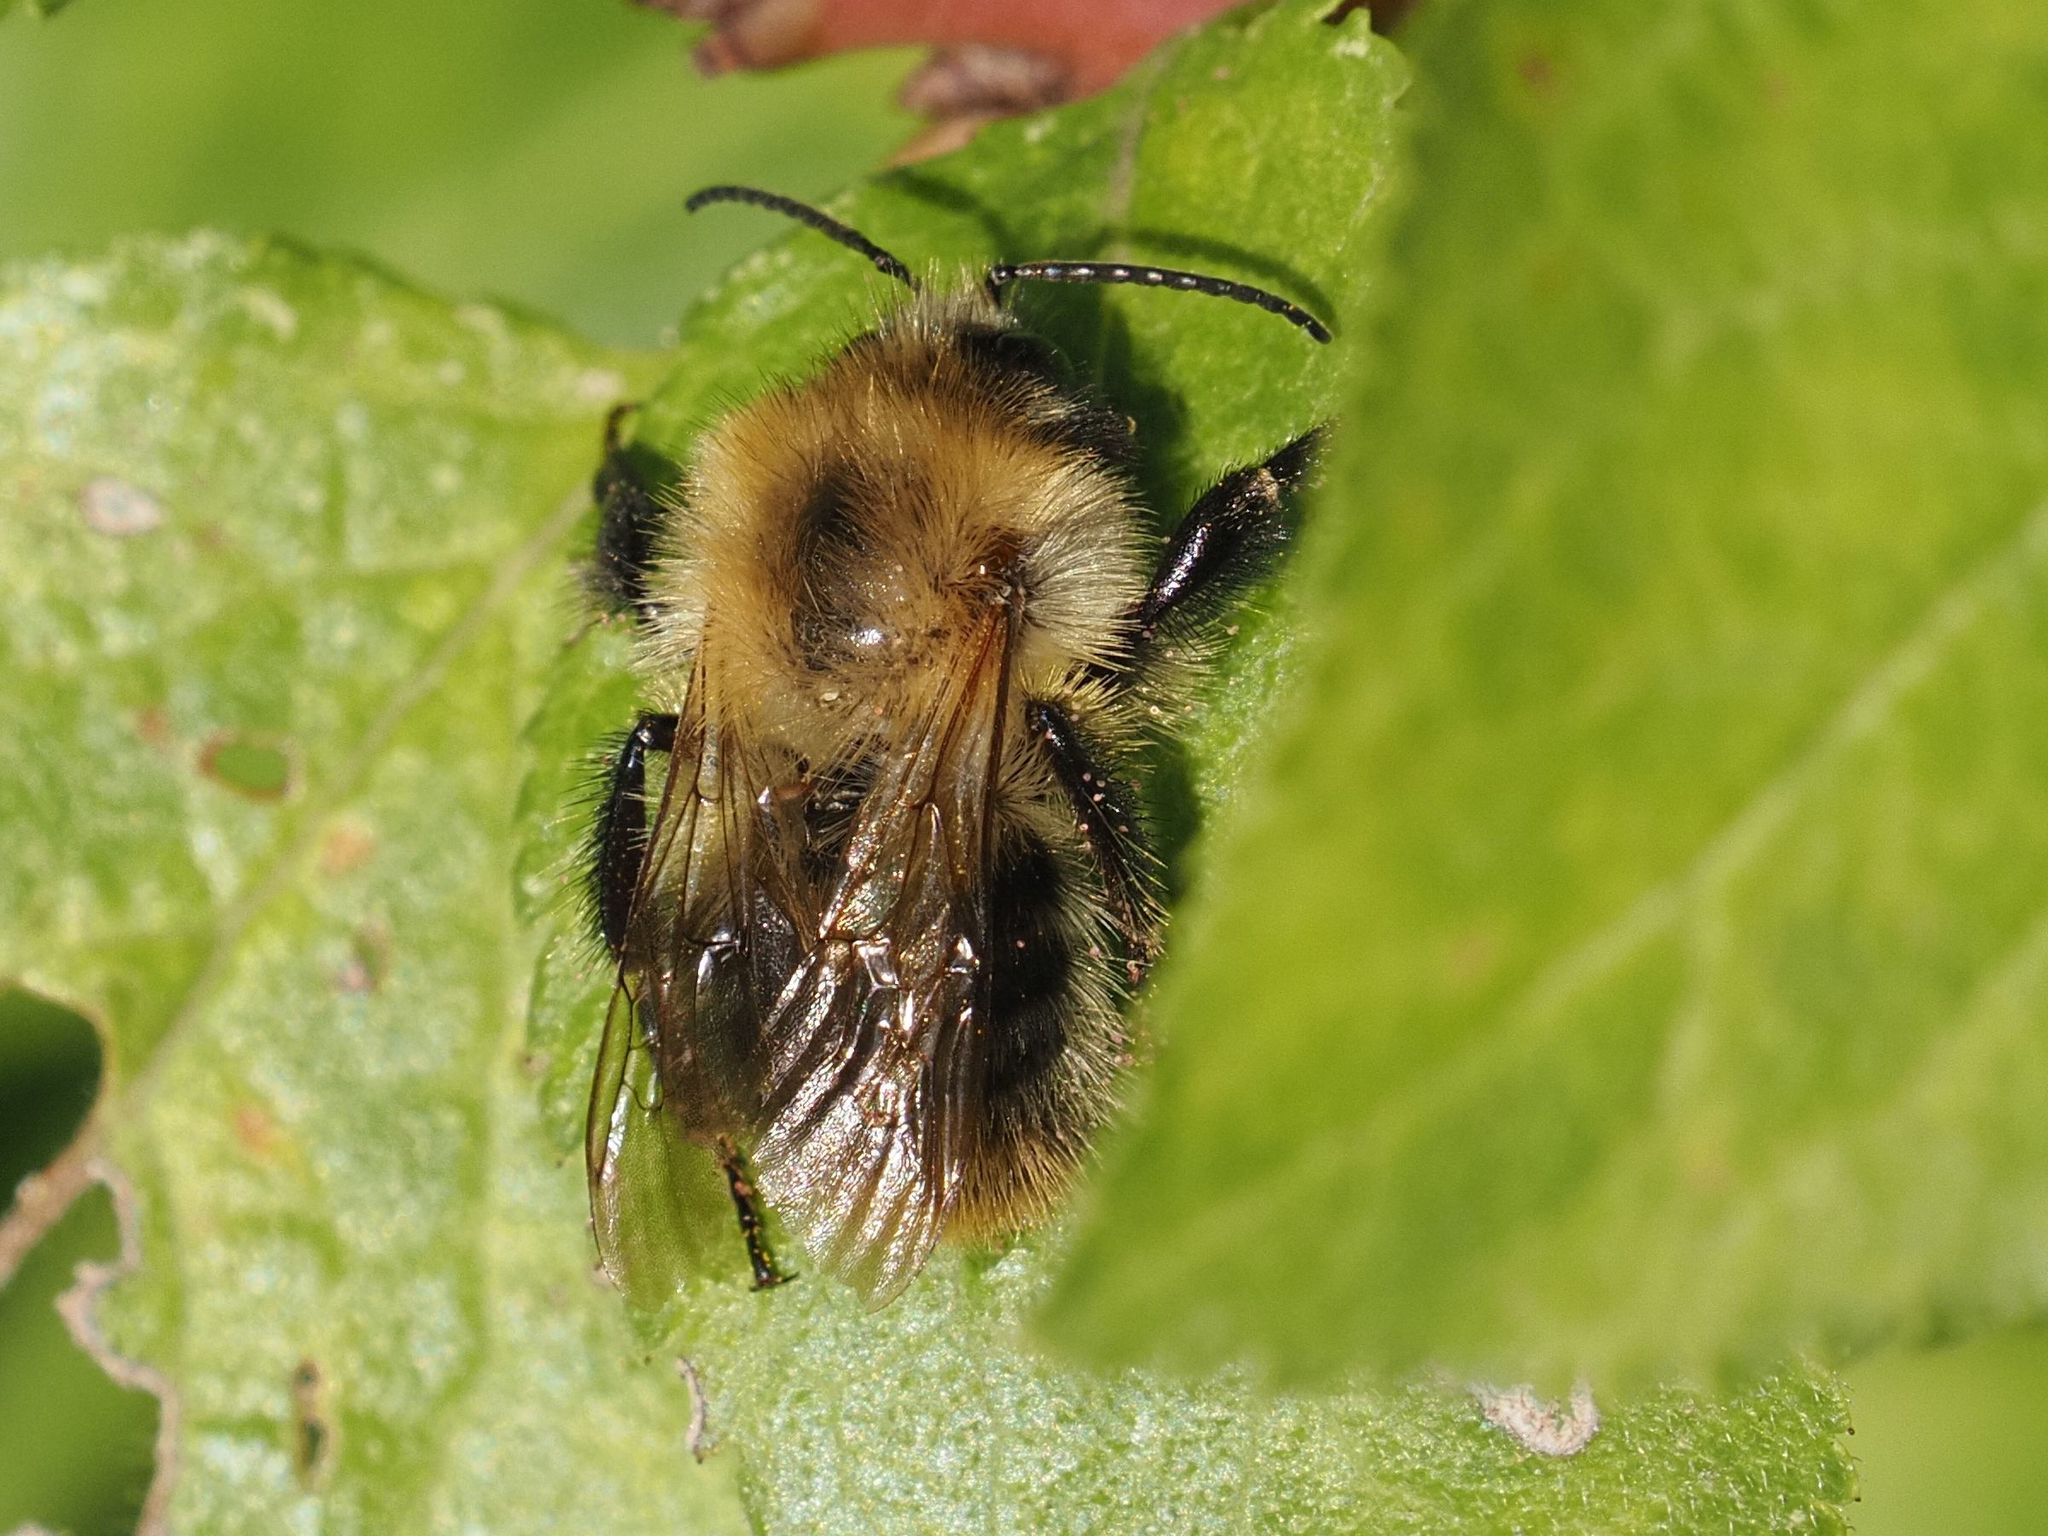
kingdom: Animalia
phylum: Arthropoda
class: Insecta
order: Hymenoptera
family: Apidae
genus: Bombus
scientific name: Bombus pascuorum
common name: Common carder bee
